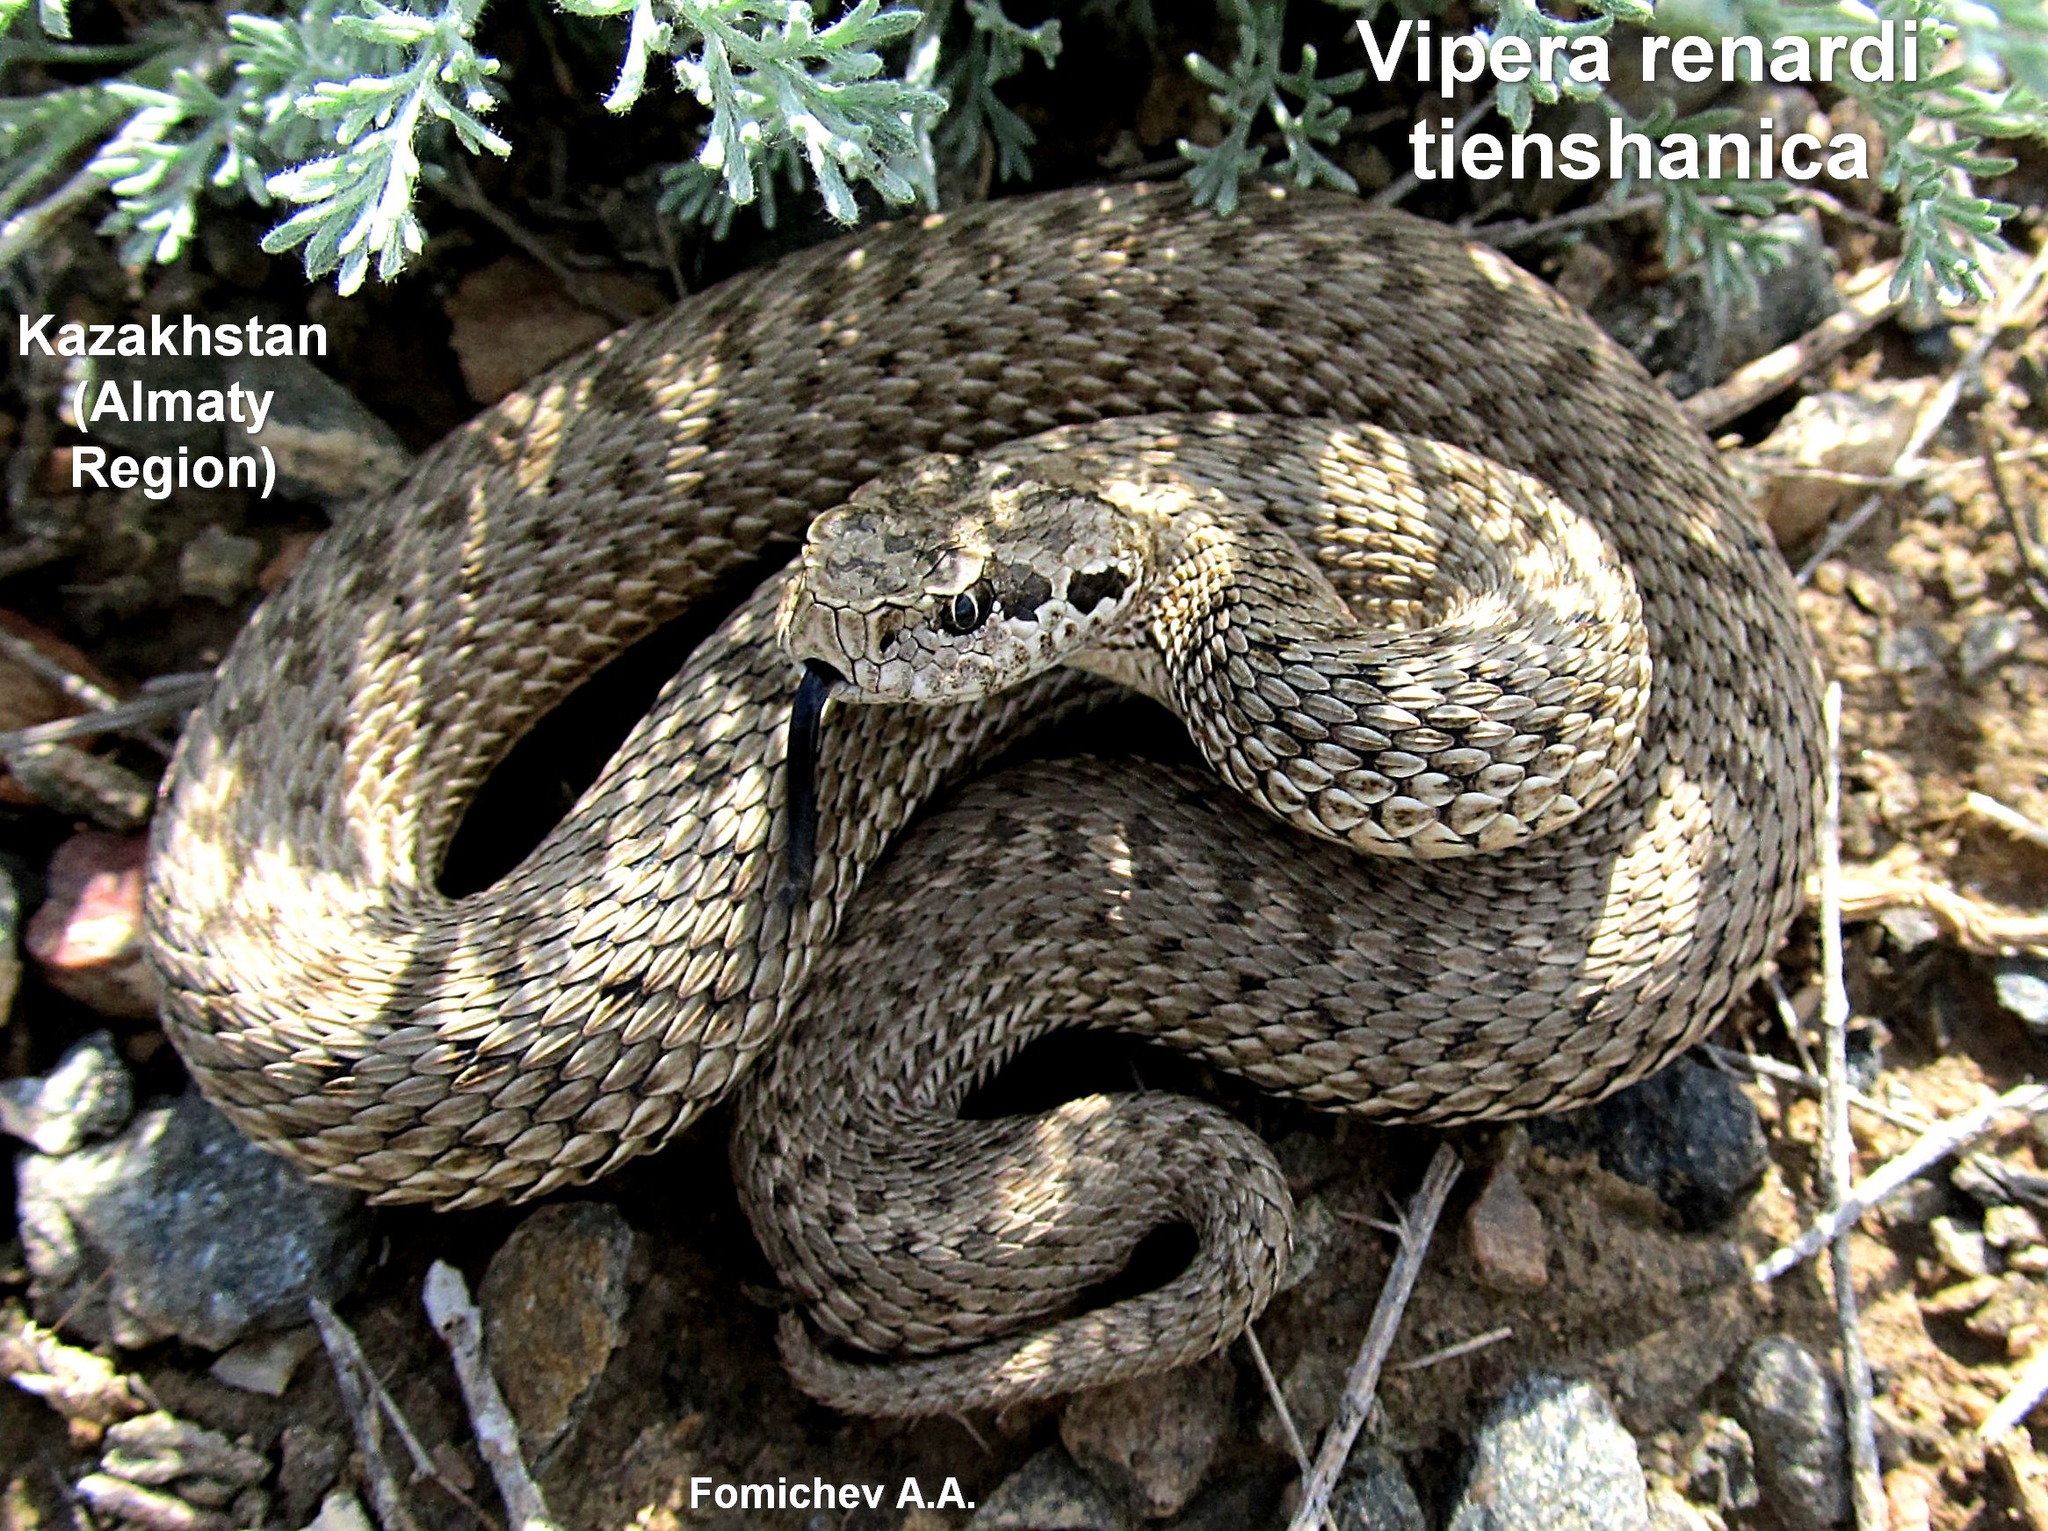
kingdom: Animalia
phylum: Chordata
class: Squamata
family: Viperidae
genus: Vipera
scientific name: Vipera renardi
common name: Eastern steppe viper
